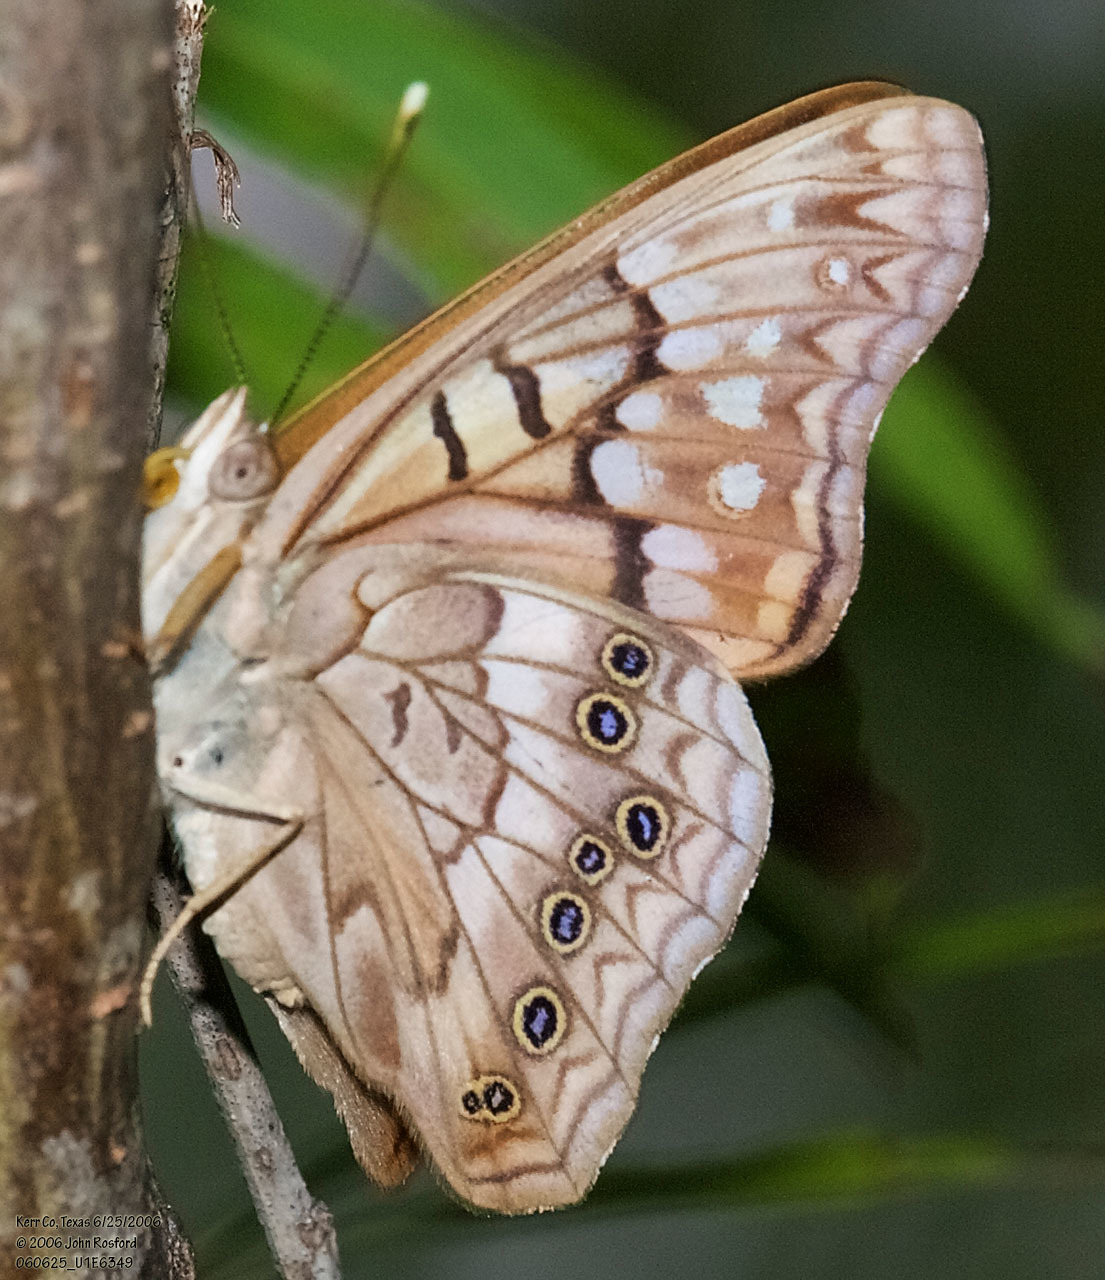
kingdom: Animalia
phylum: Arthropoda
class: Insecta
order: Lepidoptera
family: Nymphalidae
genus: Asterocampa
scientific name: Asterocampa clyton
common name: Tawny emperor
